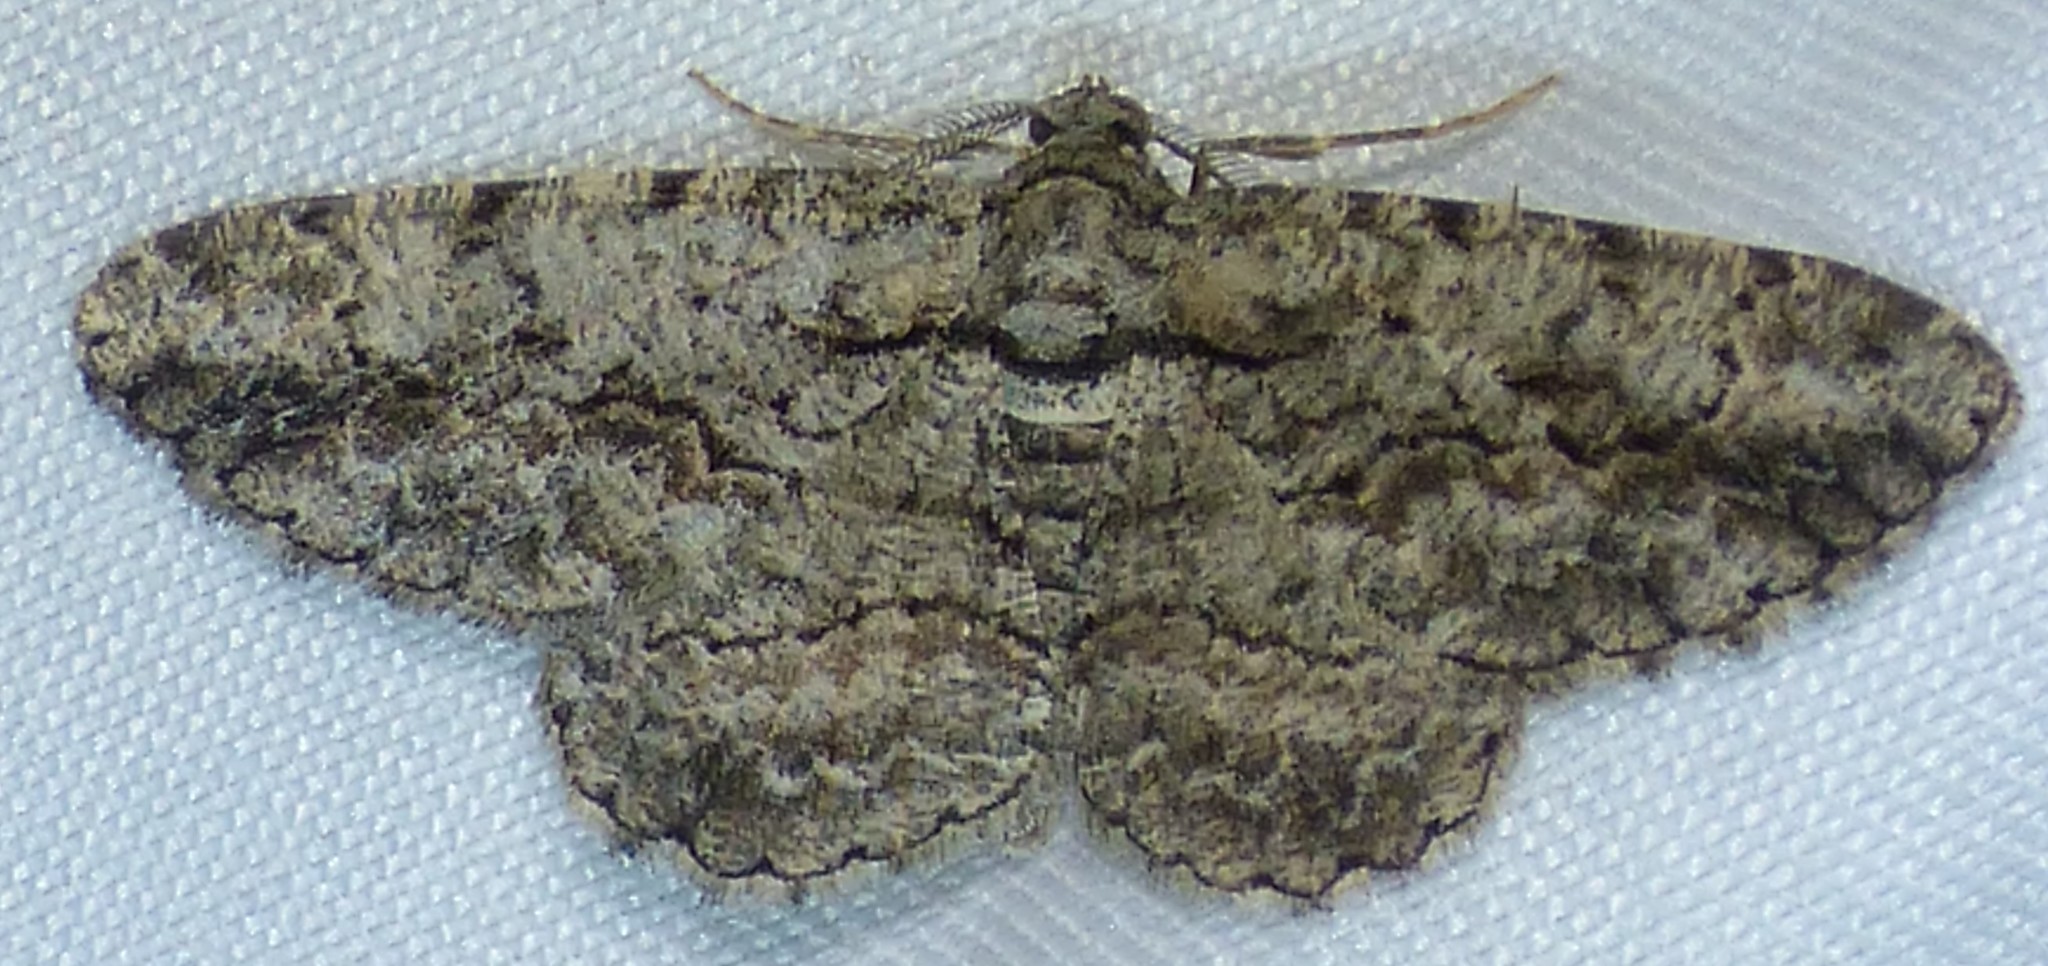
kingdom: Animalia
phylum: Arthropoda
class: Insecta
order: Lepidoptera
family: Geometridae
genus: Anavitrinella
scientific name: Anavitrinella pampinaria
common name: Common gray
